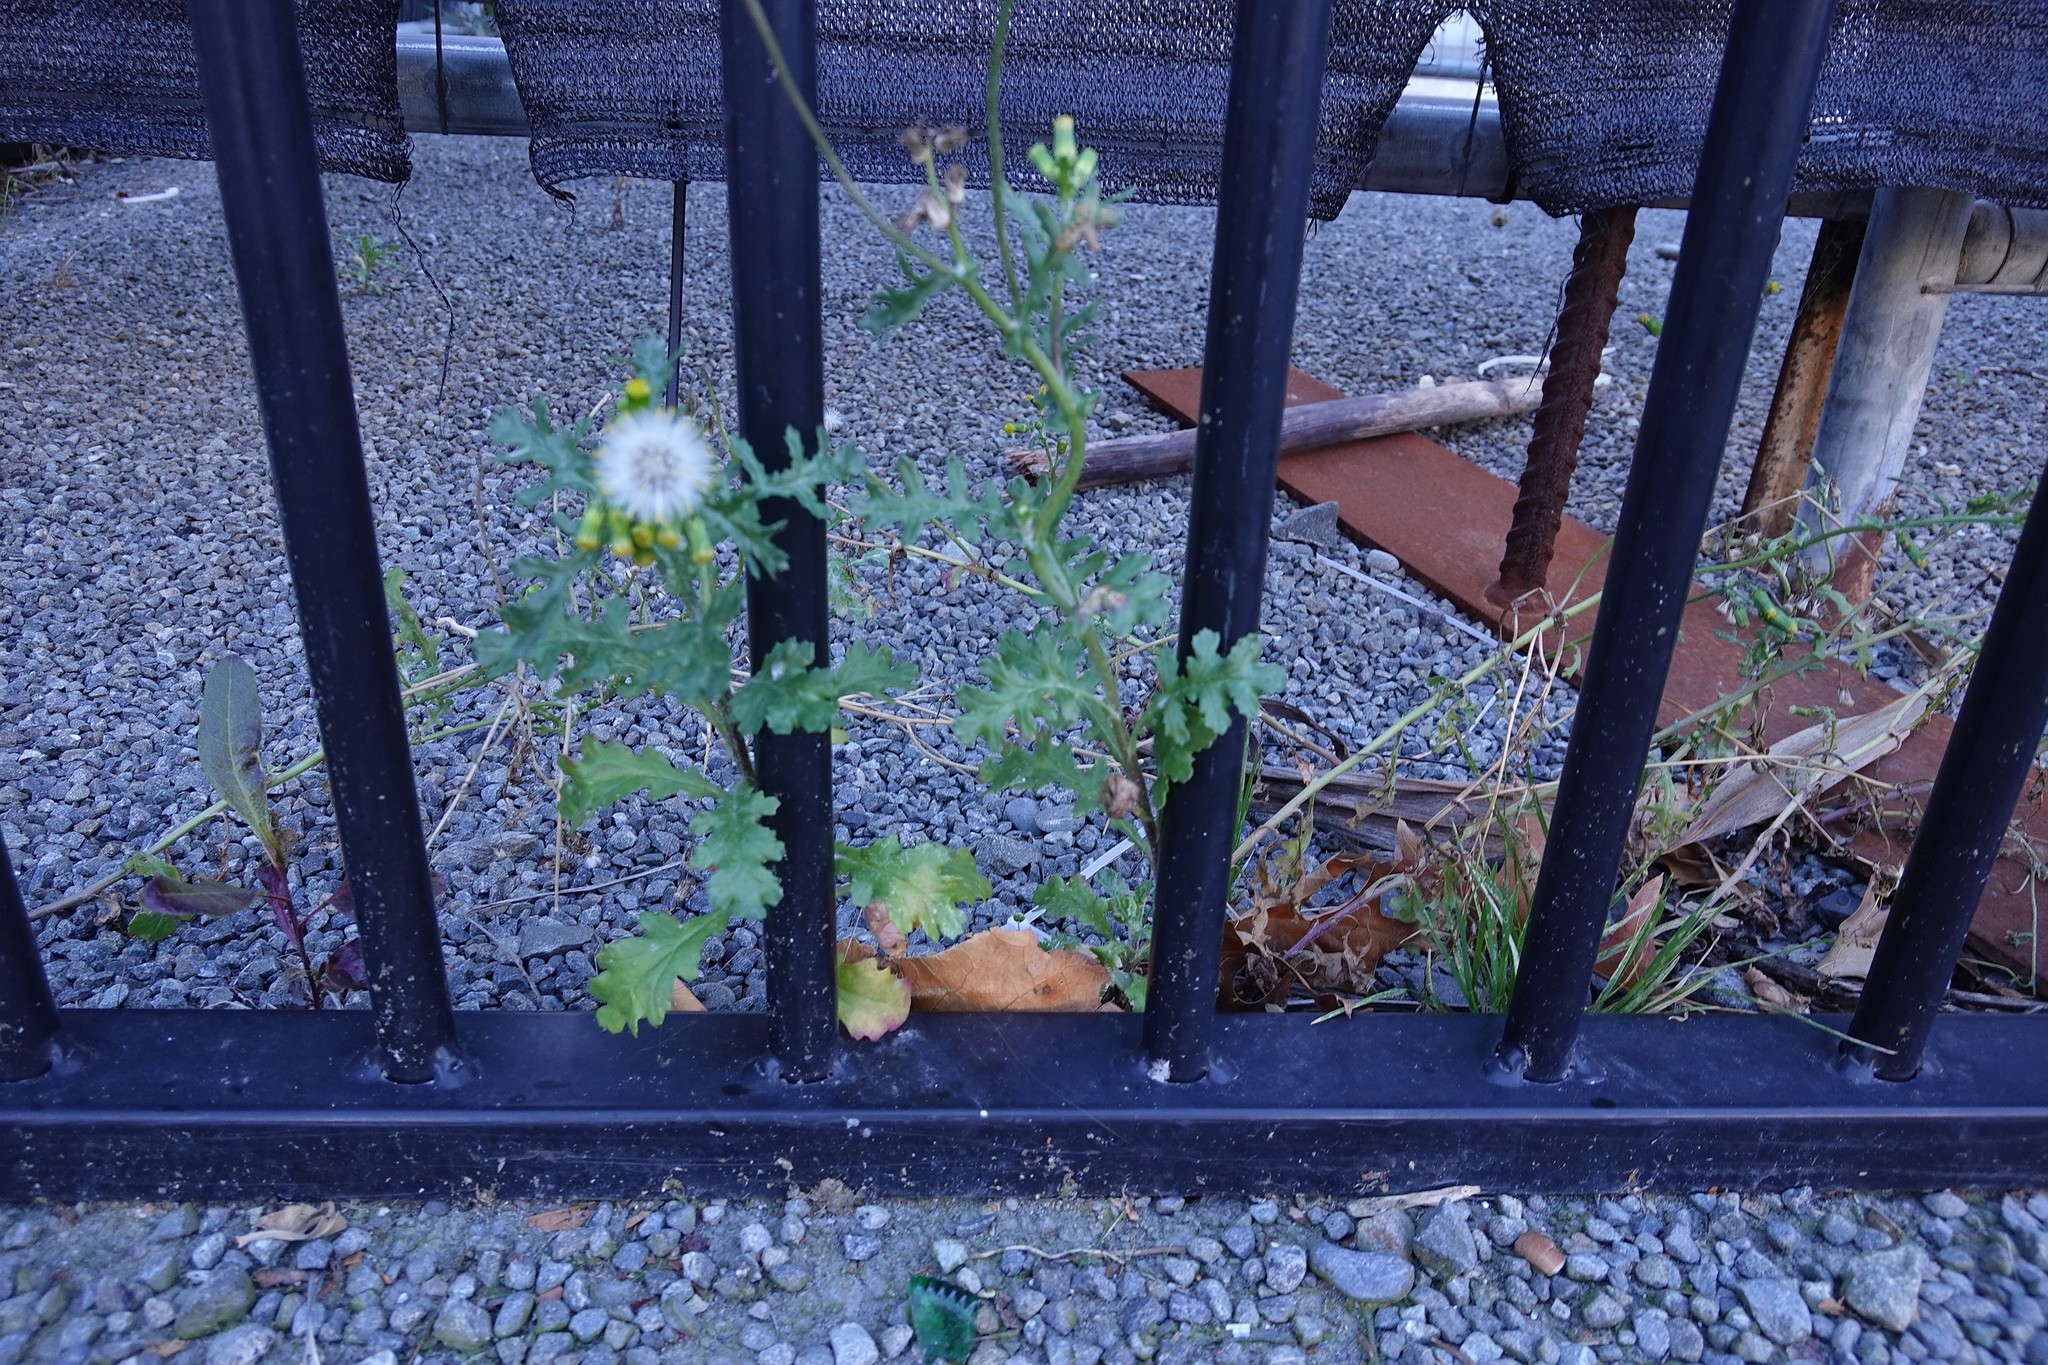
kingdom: Plantae
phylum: Tracheophyta
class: Magnoliopsida
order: Asterales
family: Asteraceae
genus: Senecio
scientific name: Senecio vulgaris
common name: Old-man-in-the-spring
